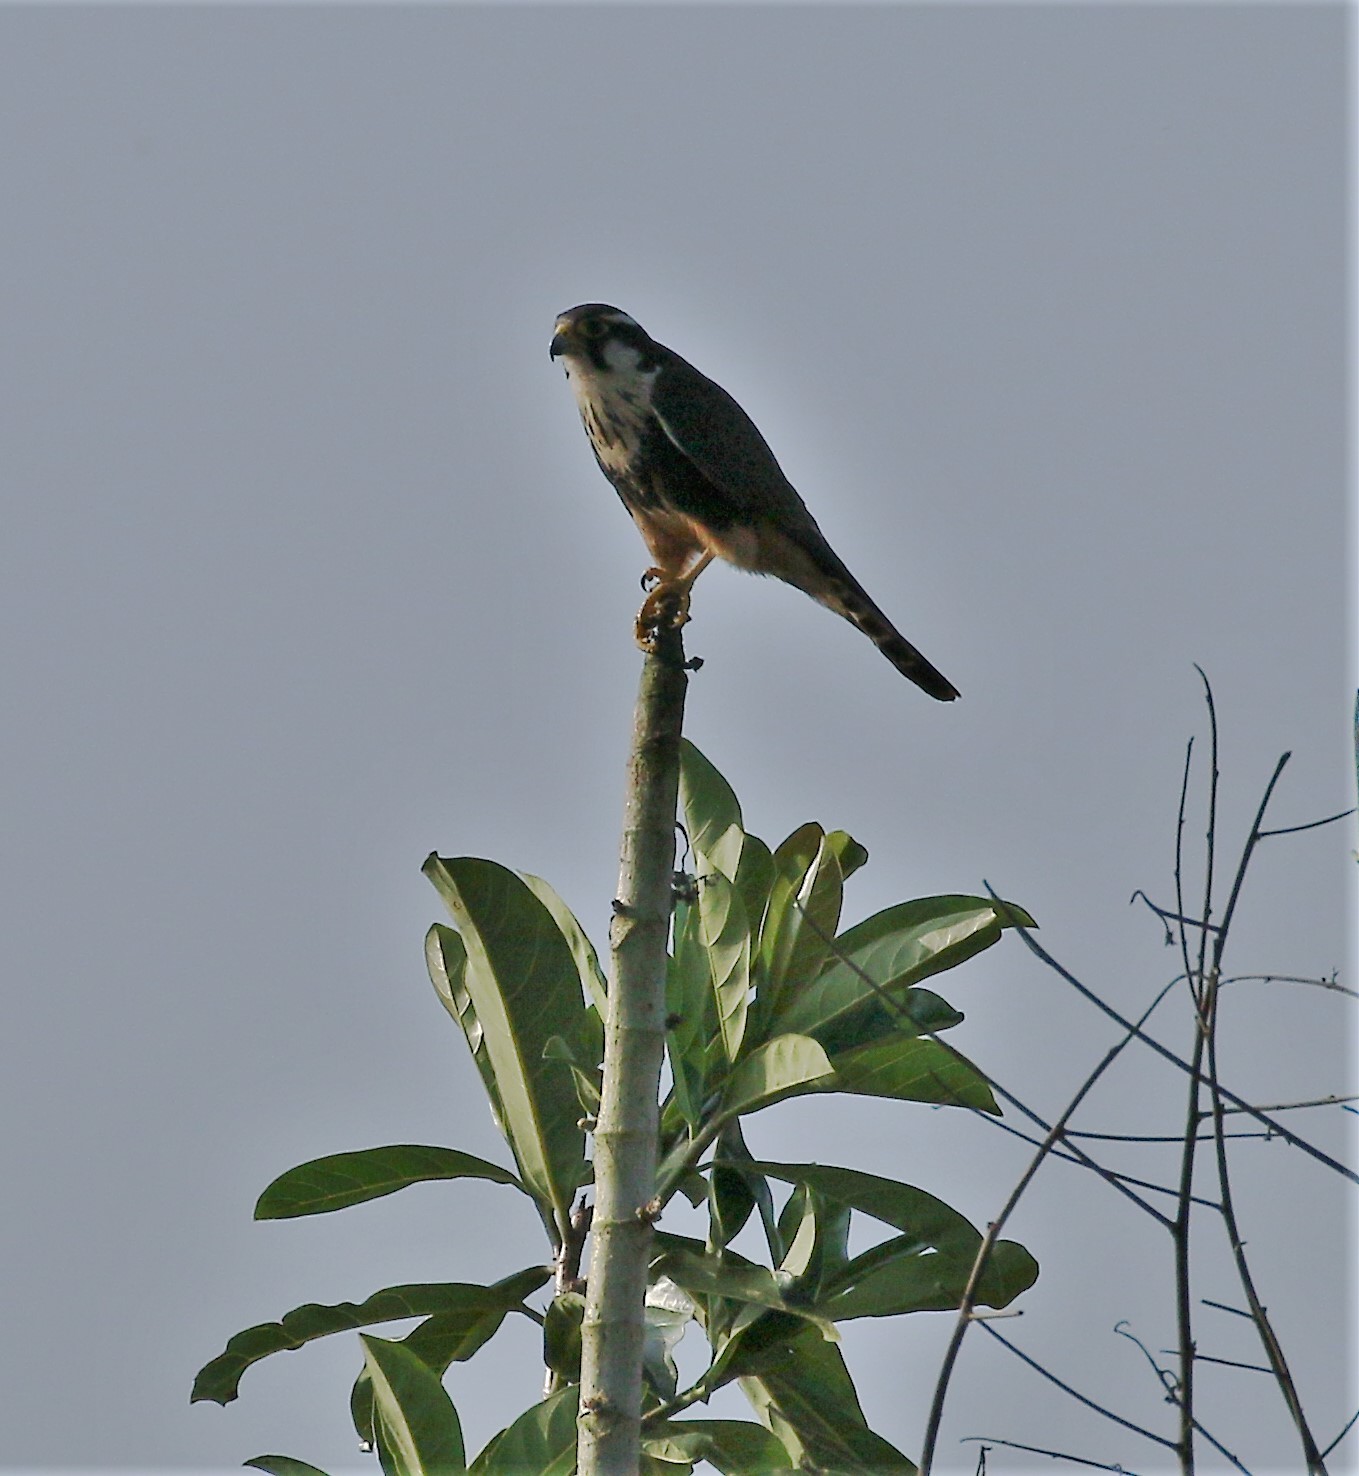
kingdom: Animalia
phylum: Chordata
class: Aves
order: Falconiformes
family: Falconidae
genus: Falco
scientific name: Falco femoralis
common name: Aplomado falcon
